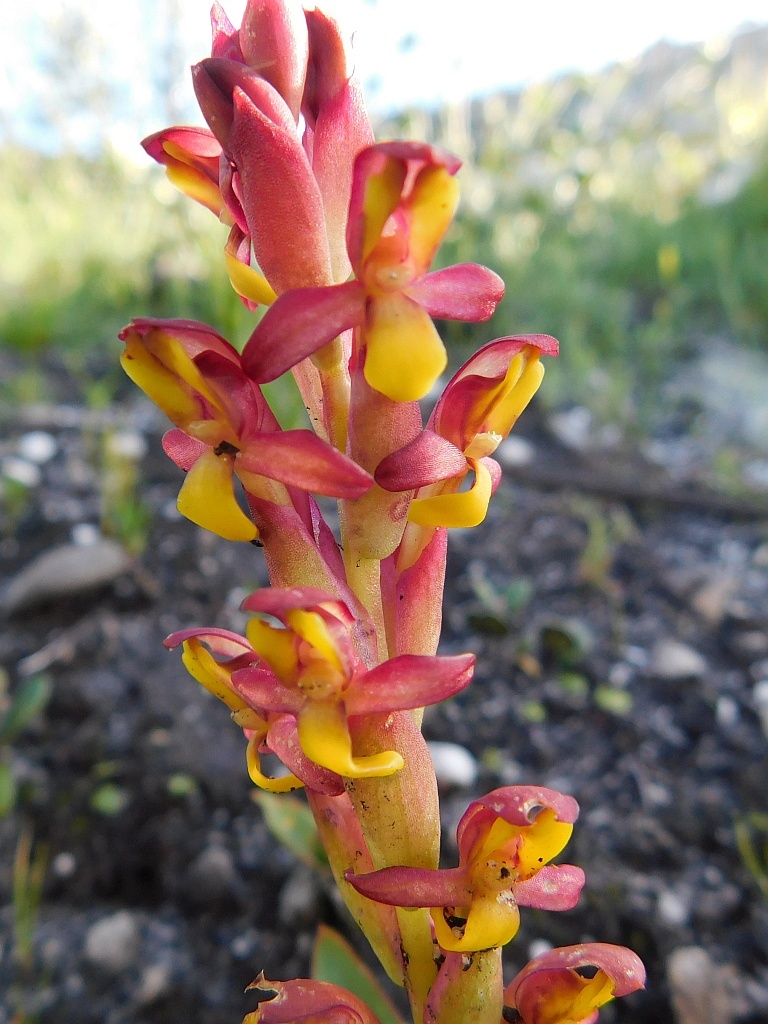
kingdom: Plantae
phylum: Tracheophyta
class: Liliopsida
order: Asparagales
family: Orchidaceae
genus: Disa
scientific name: Disa comosa
